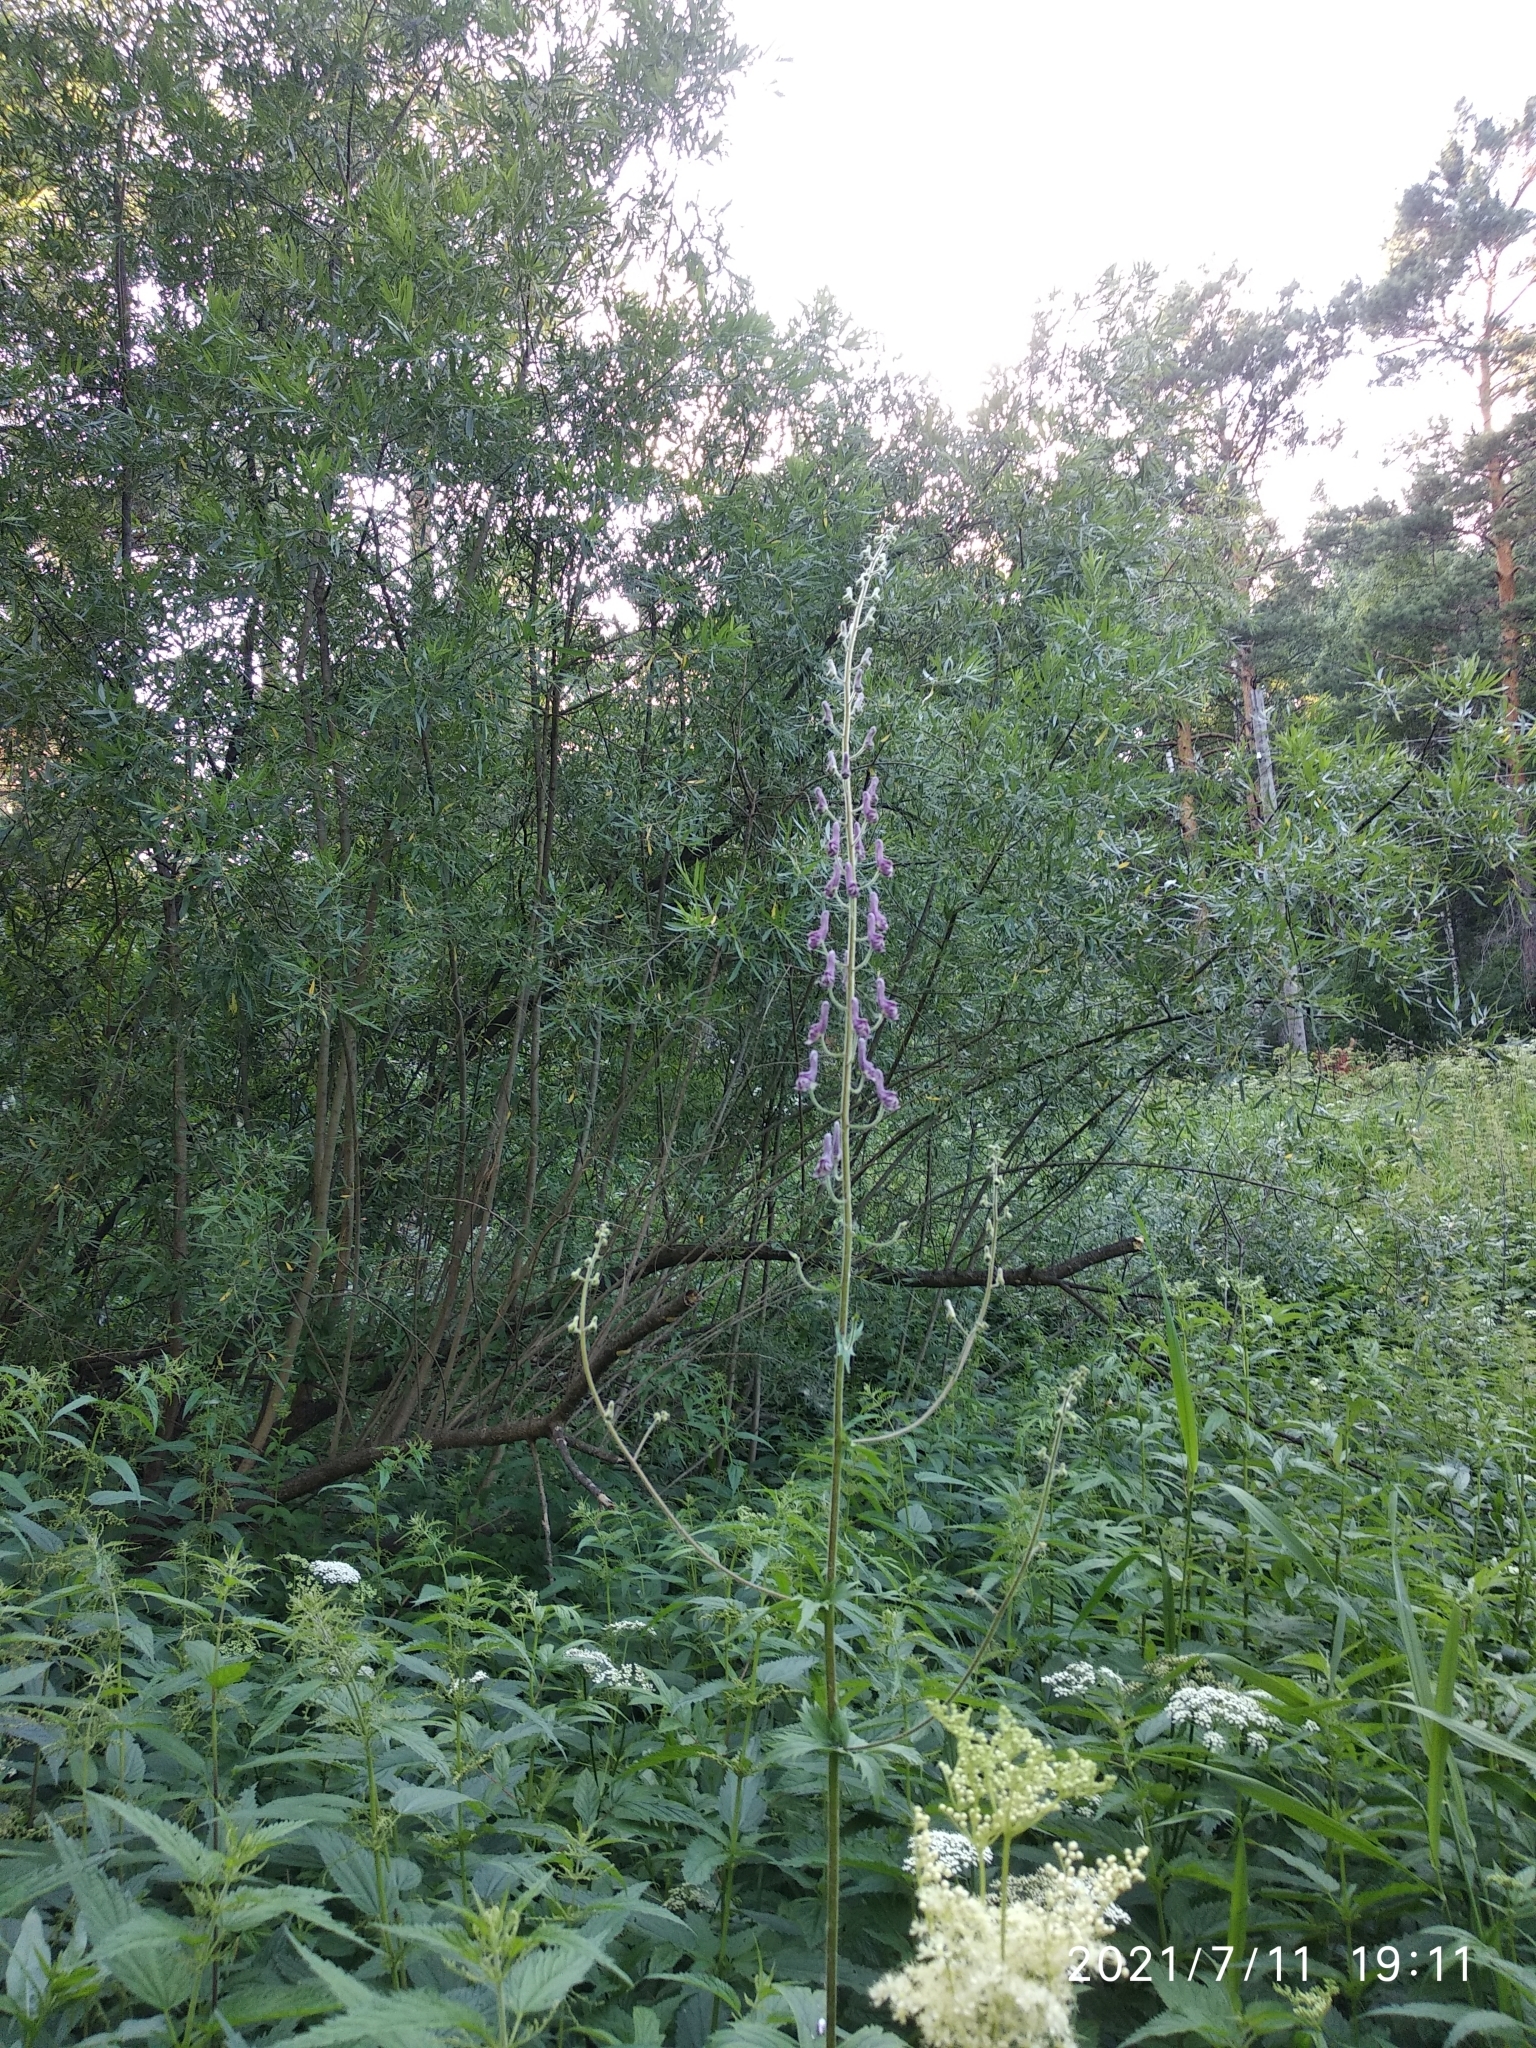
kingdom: Plantae
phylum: Tracheophyta
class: Magnoliopsida
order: Ranunculales
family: Ranunculaceae
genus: Aconitum
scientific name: Aconitum septentrionale
